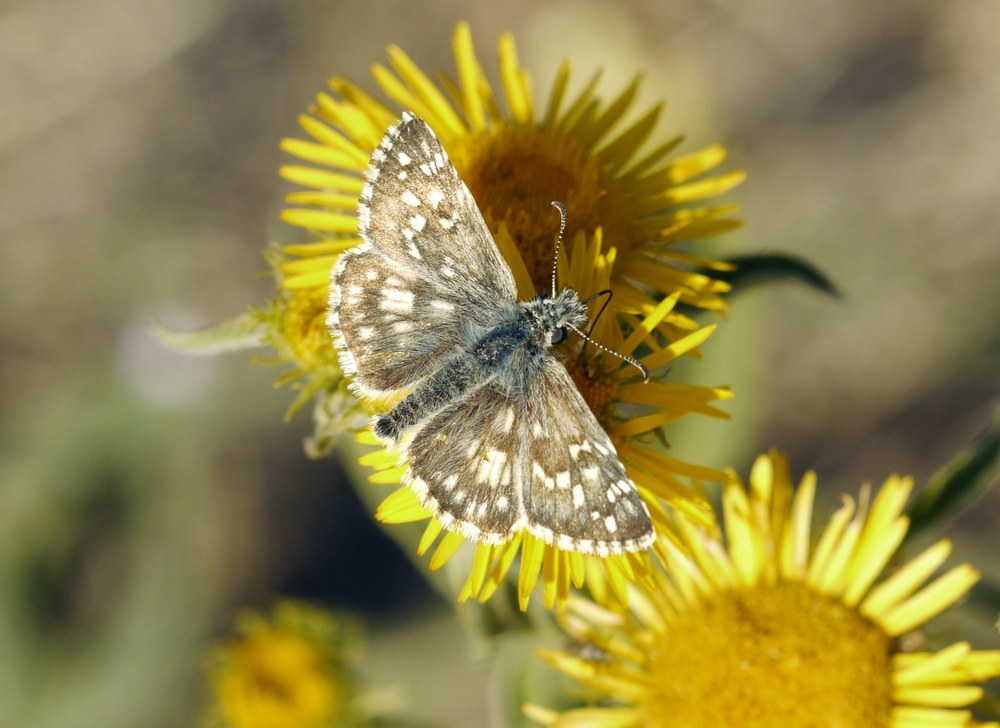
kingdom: Animalia
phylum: Arthropoda
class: Insecta
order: Lepidoptera
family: Hesperiidae
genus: Pyrgus
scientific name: Pyrgus armoricanus
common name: Oberthür's grizzled skipper
